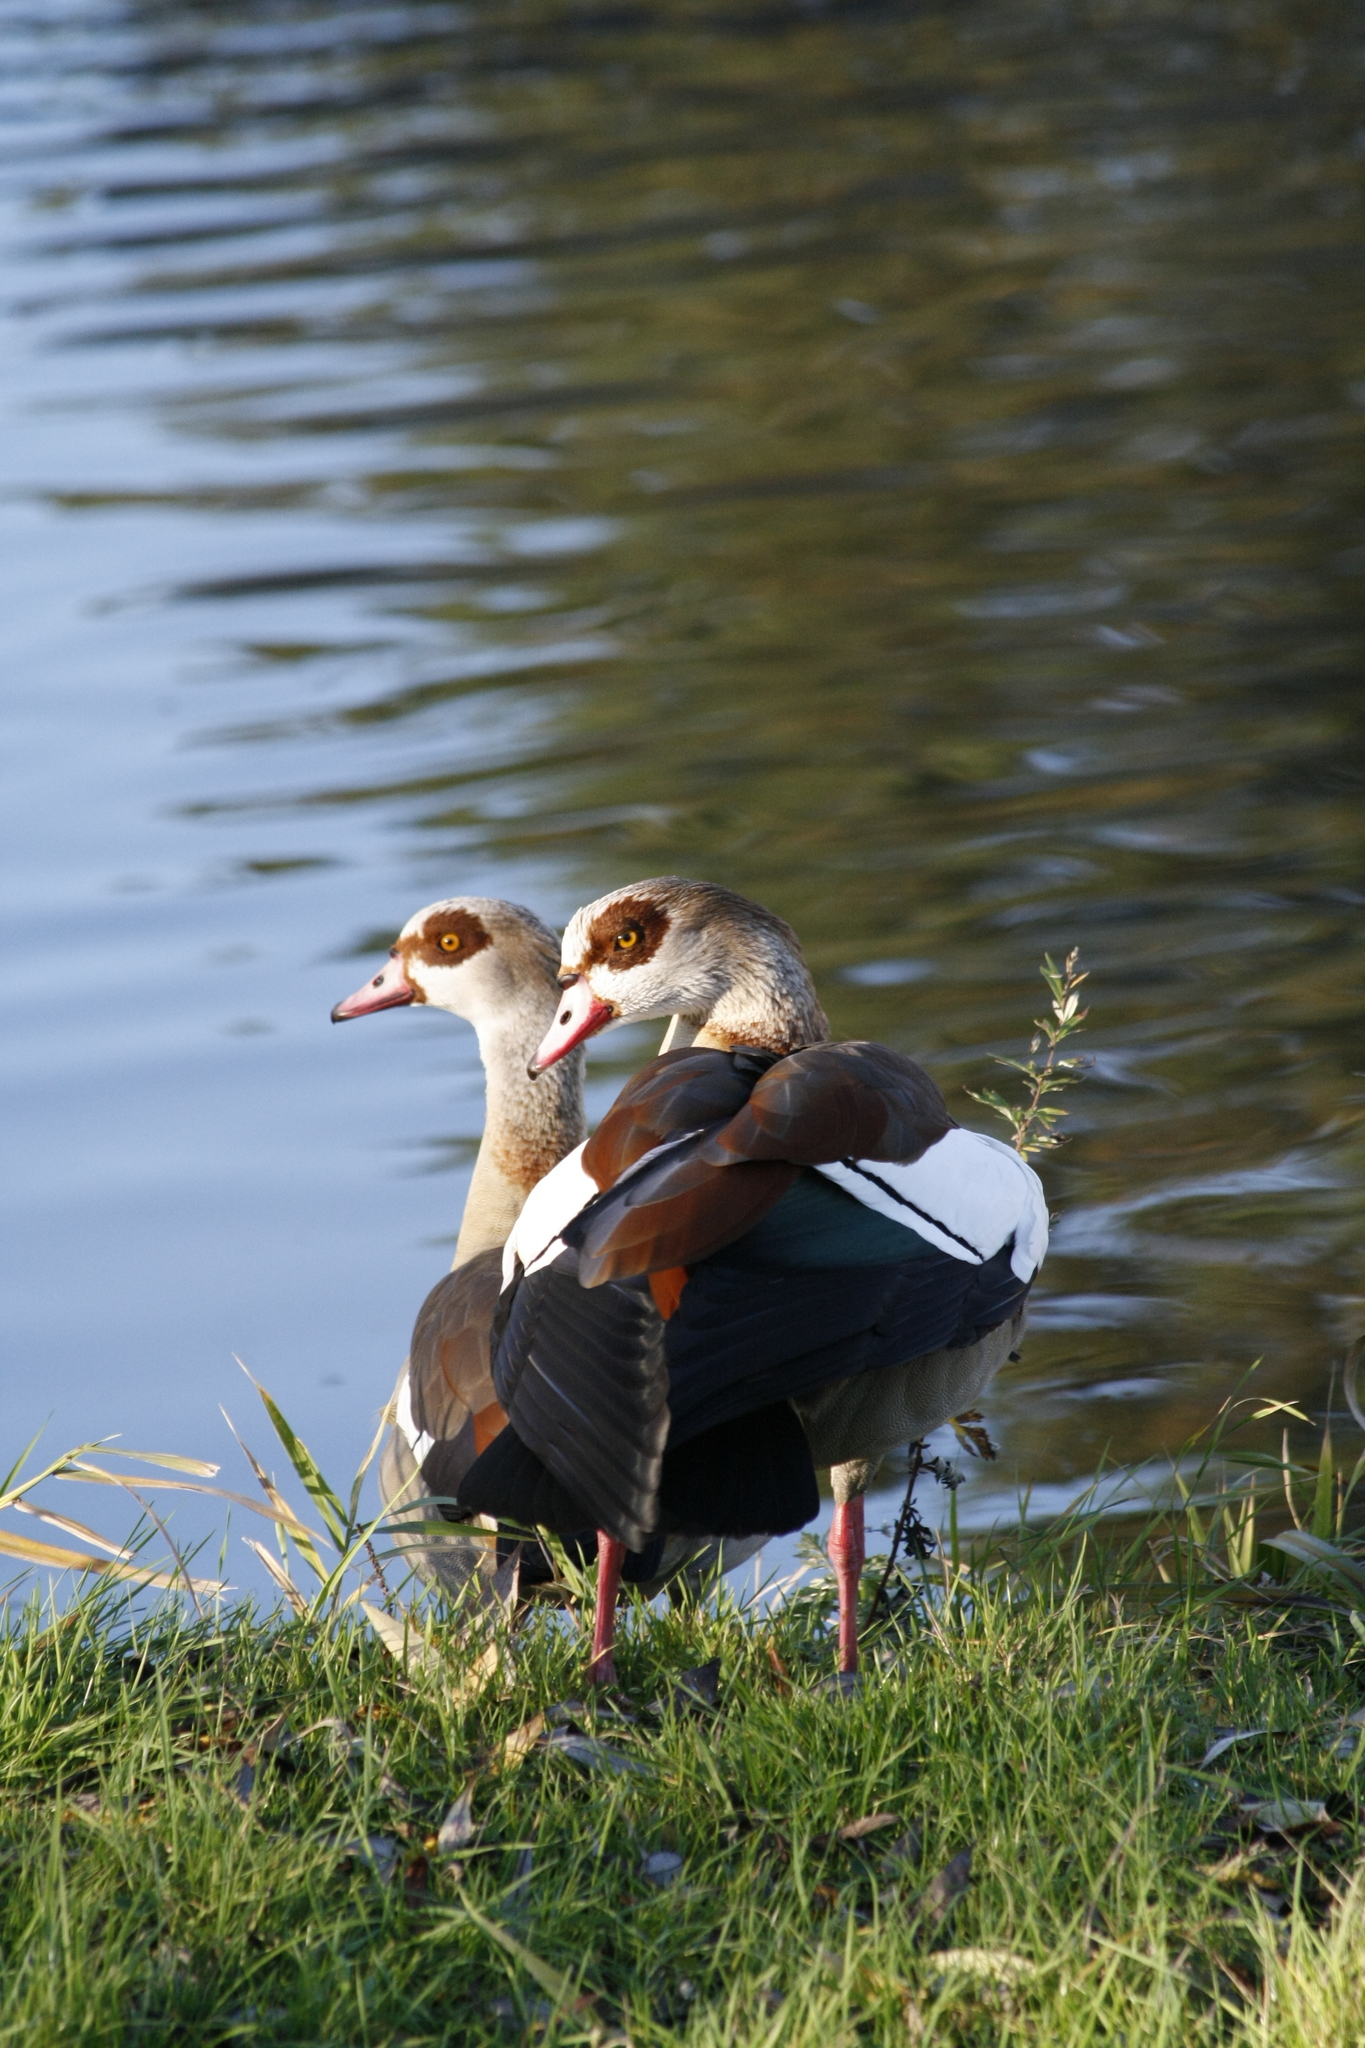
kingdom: Animalia
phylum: Chordata
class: Aves
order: Anseriformes
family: Anatidae
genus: Alopochen
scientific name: Alopochen aegyptiaca
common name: Egyptian goose
